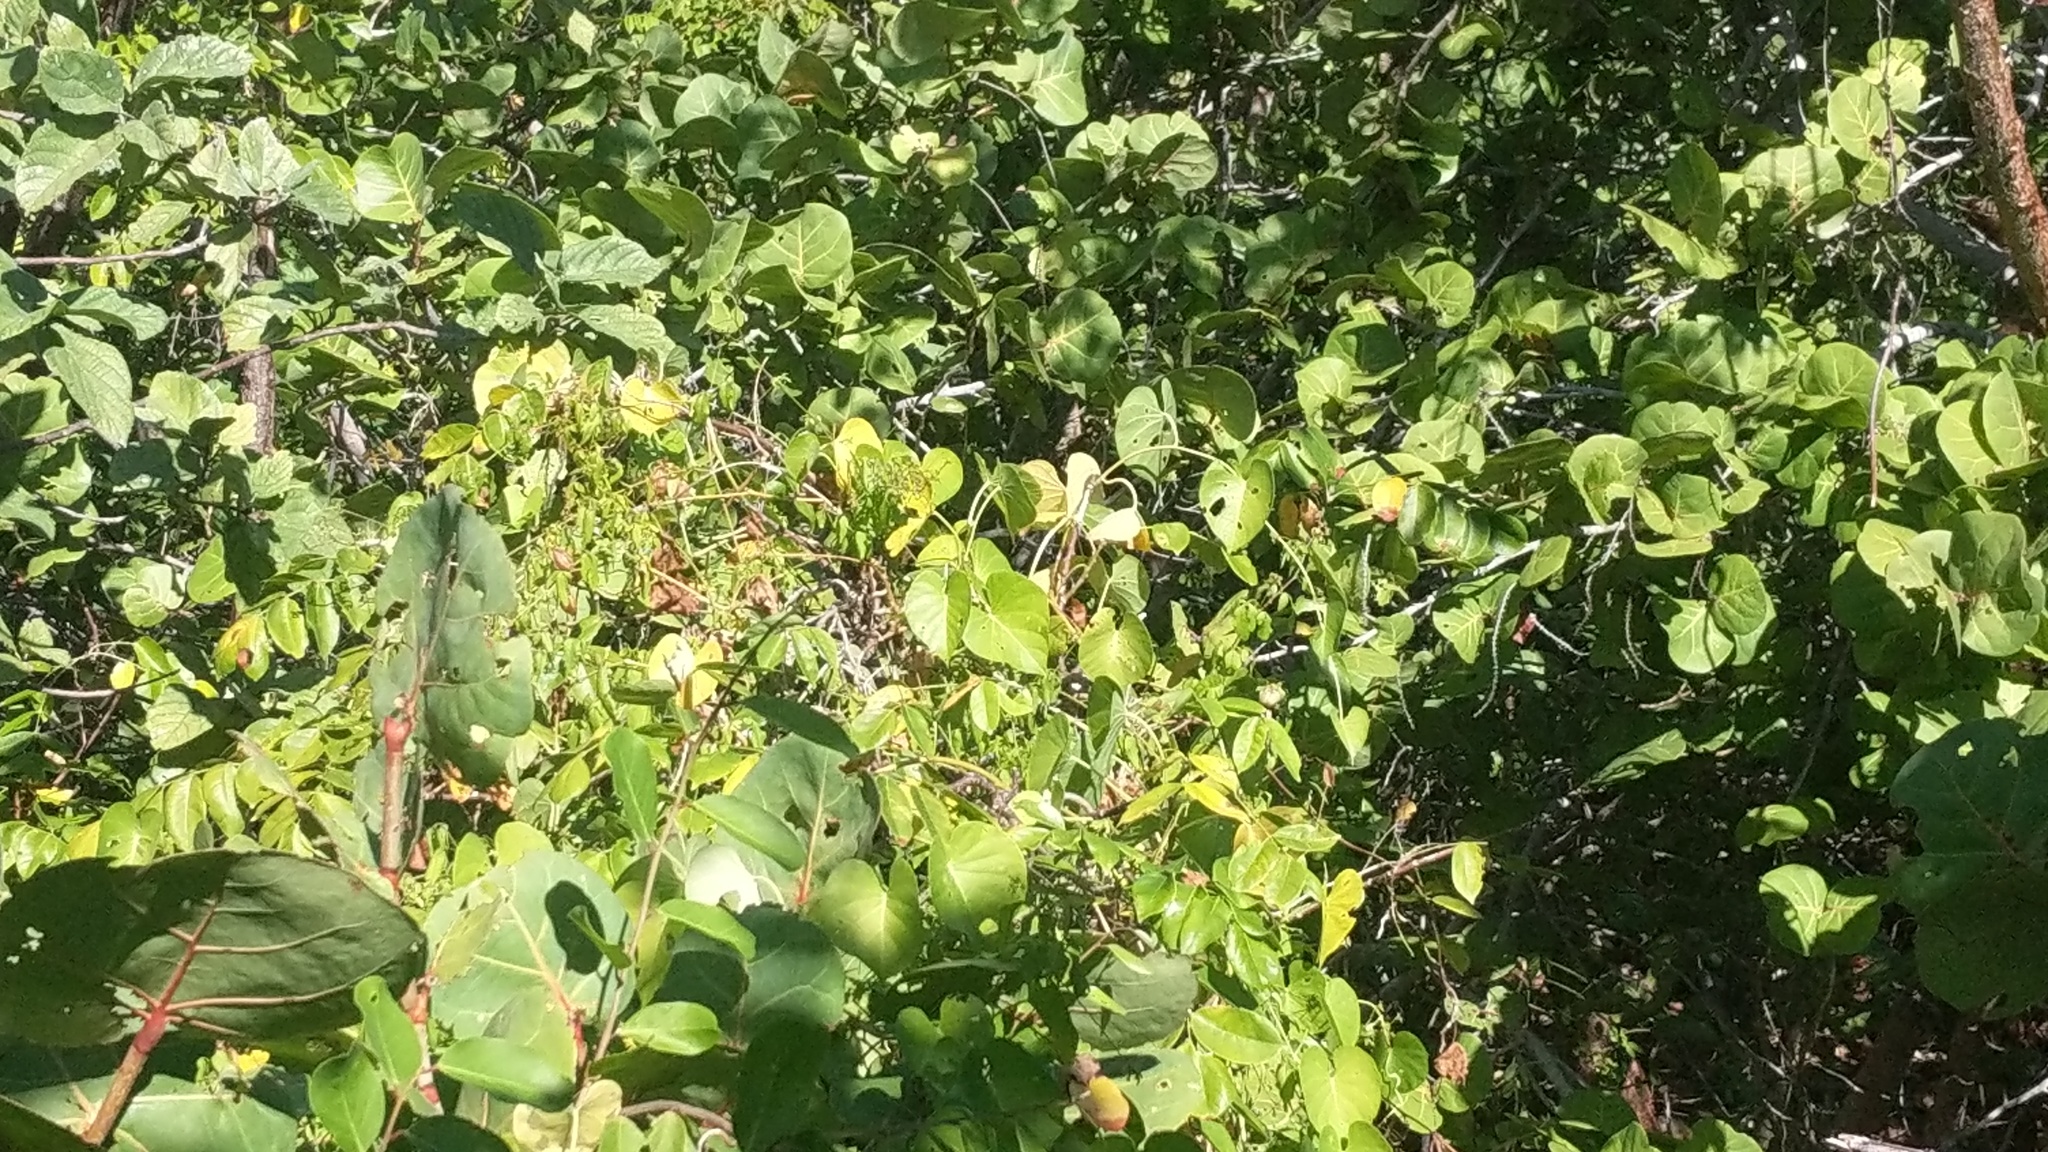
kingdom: Plantae
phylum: Tracheophyta
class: Magnoliopsida
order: Solanales
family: Convolvulaceae
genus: Ipomoea
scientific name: Ipomoea violacea
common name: Beach moonflower
